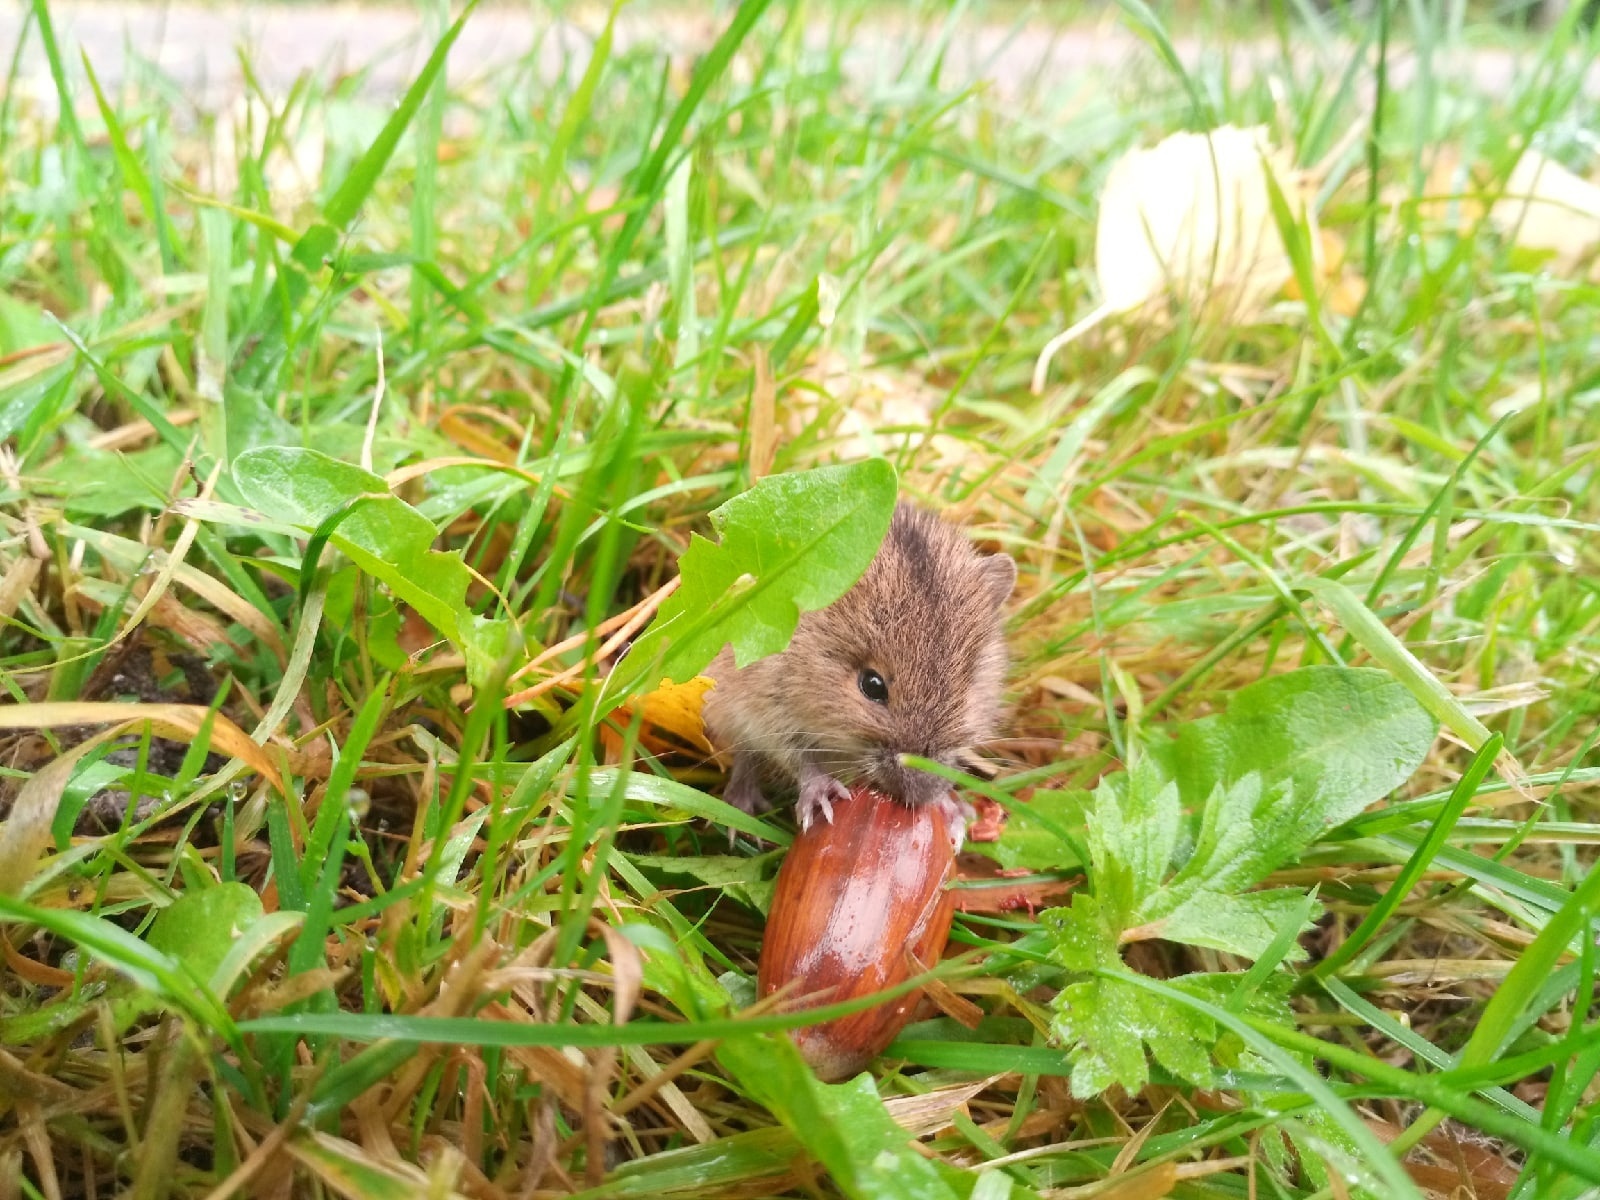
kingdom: Animalia
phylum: Chordata
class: Mammalia
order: Rodentia
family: Muridae
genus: Apodemus
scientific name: Apodemus agrarius
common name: Striped field mouse
